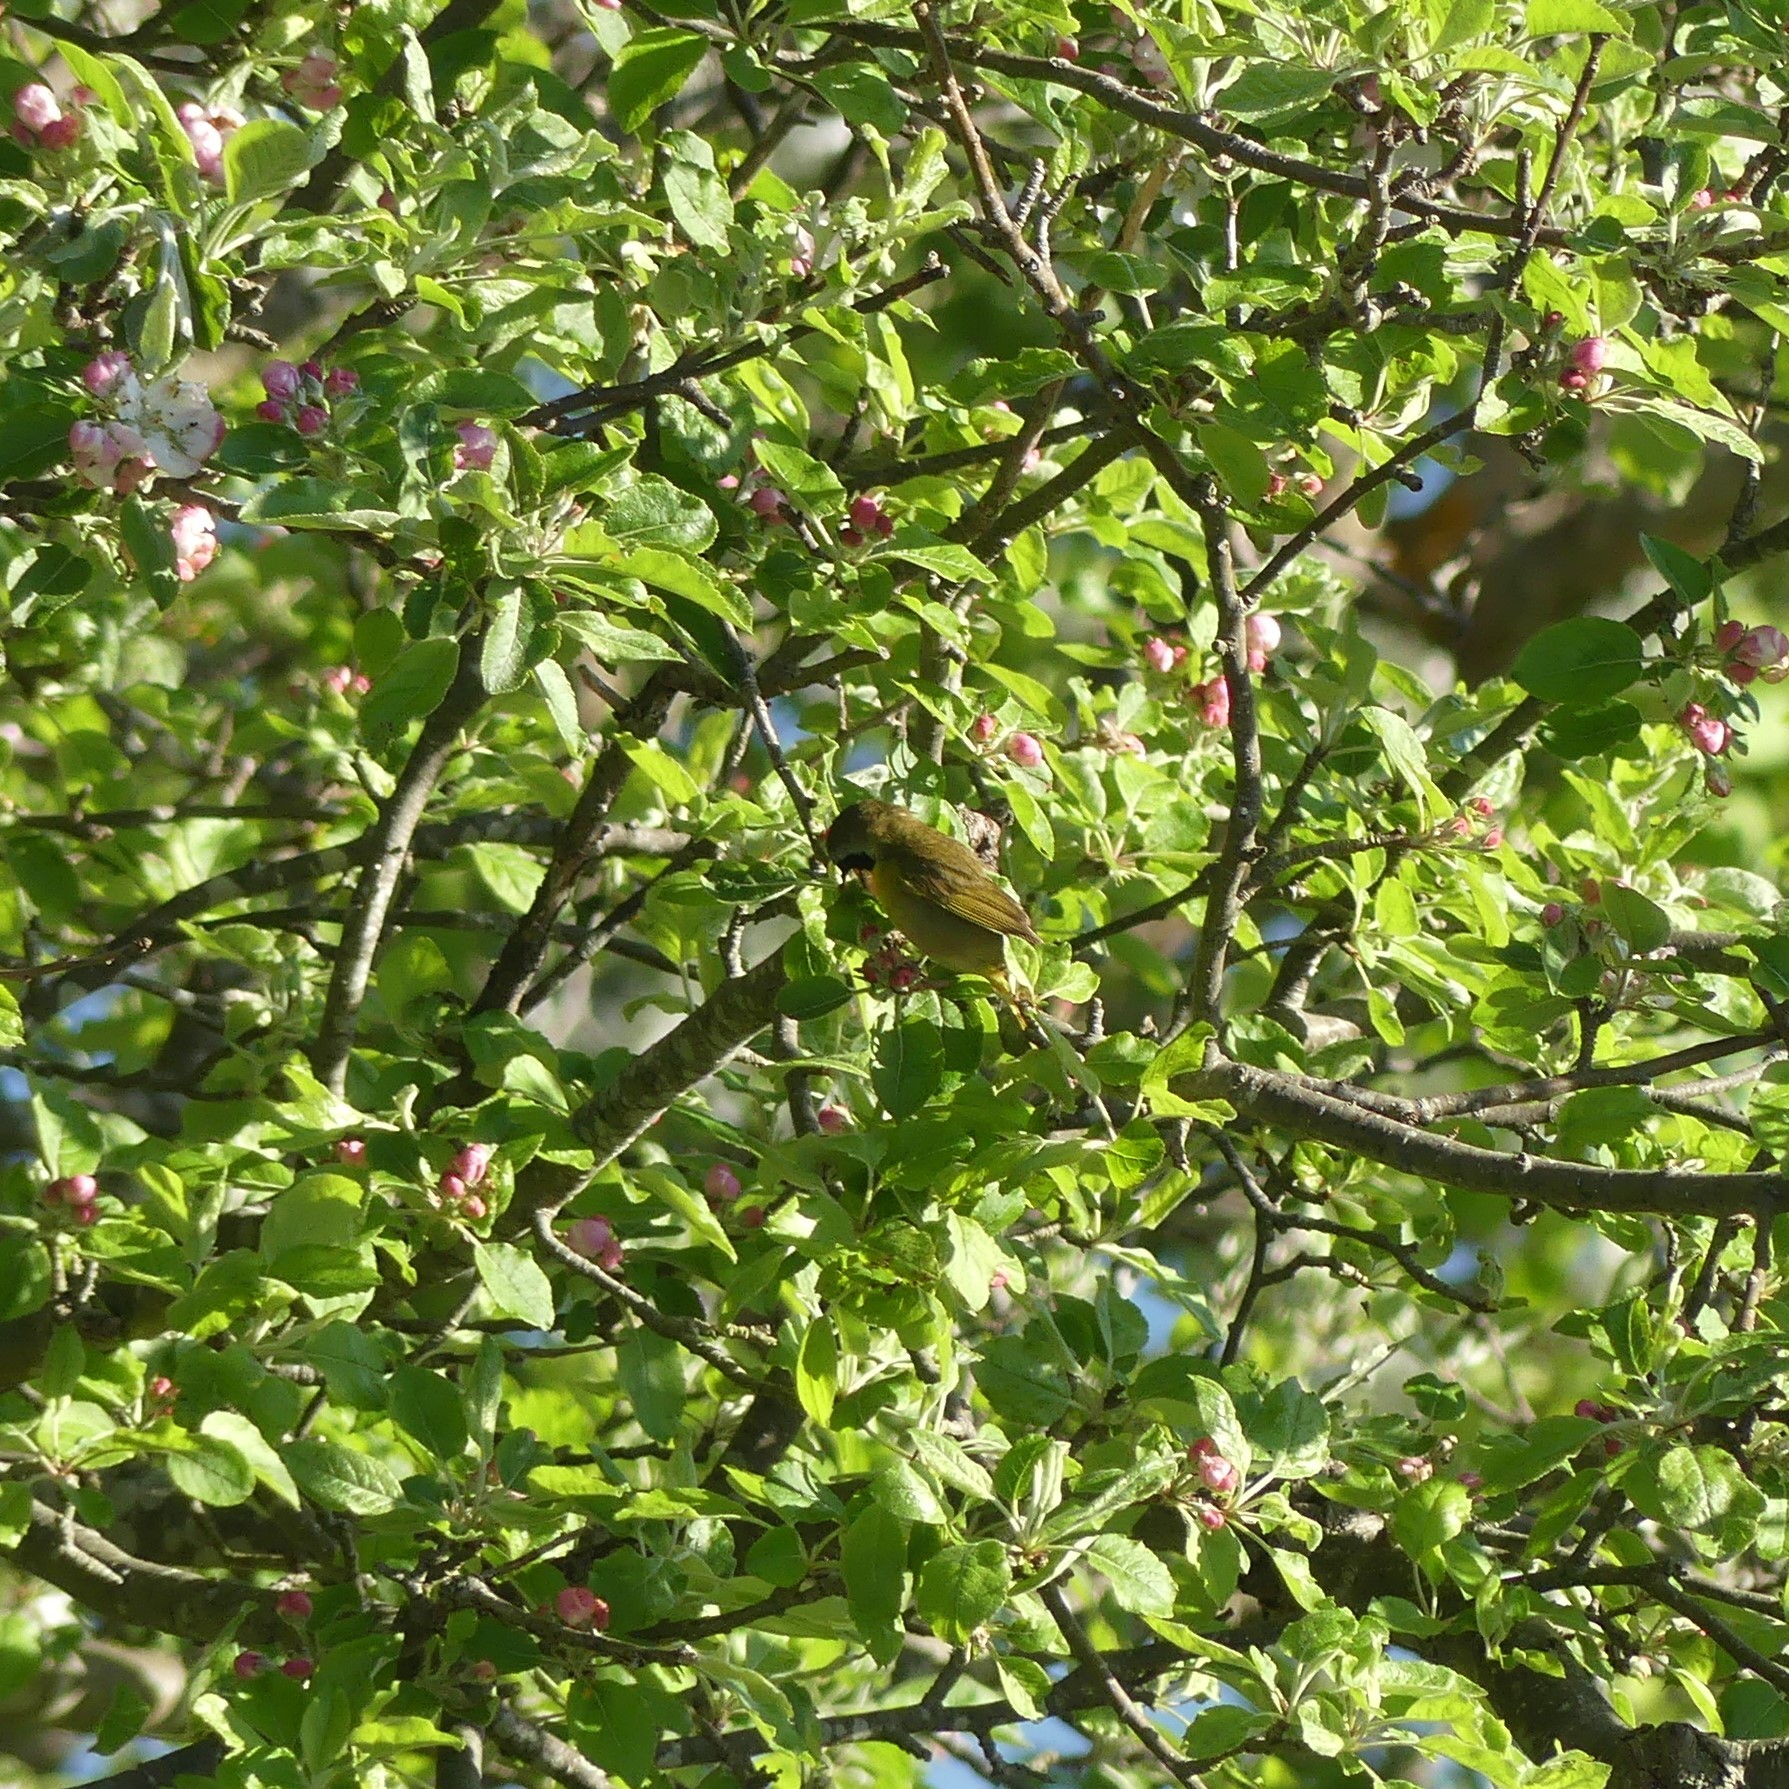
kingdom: Animalia
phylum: Chordata
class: Aves
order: Passeriformes
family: Parulidae
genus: Geothlypis
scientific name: Geothlypis trichas
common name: Common yellowthroat
